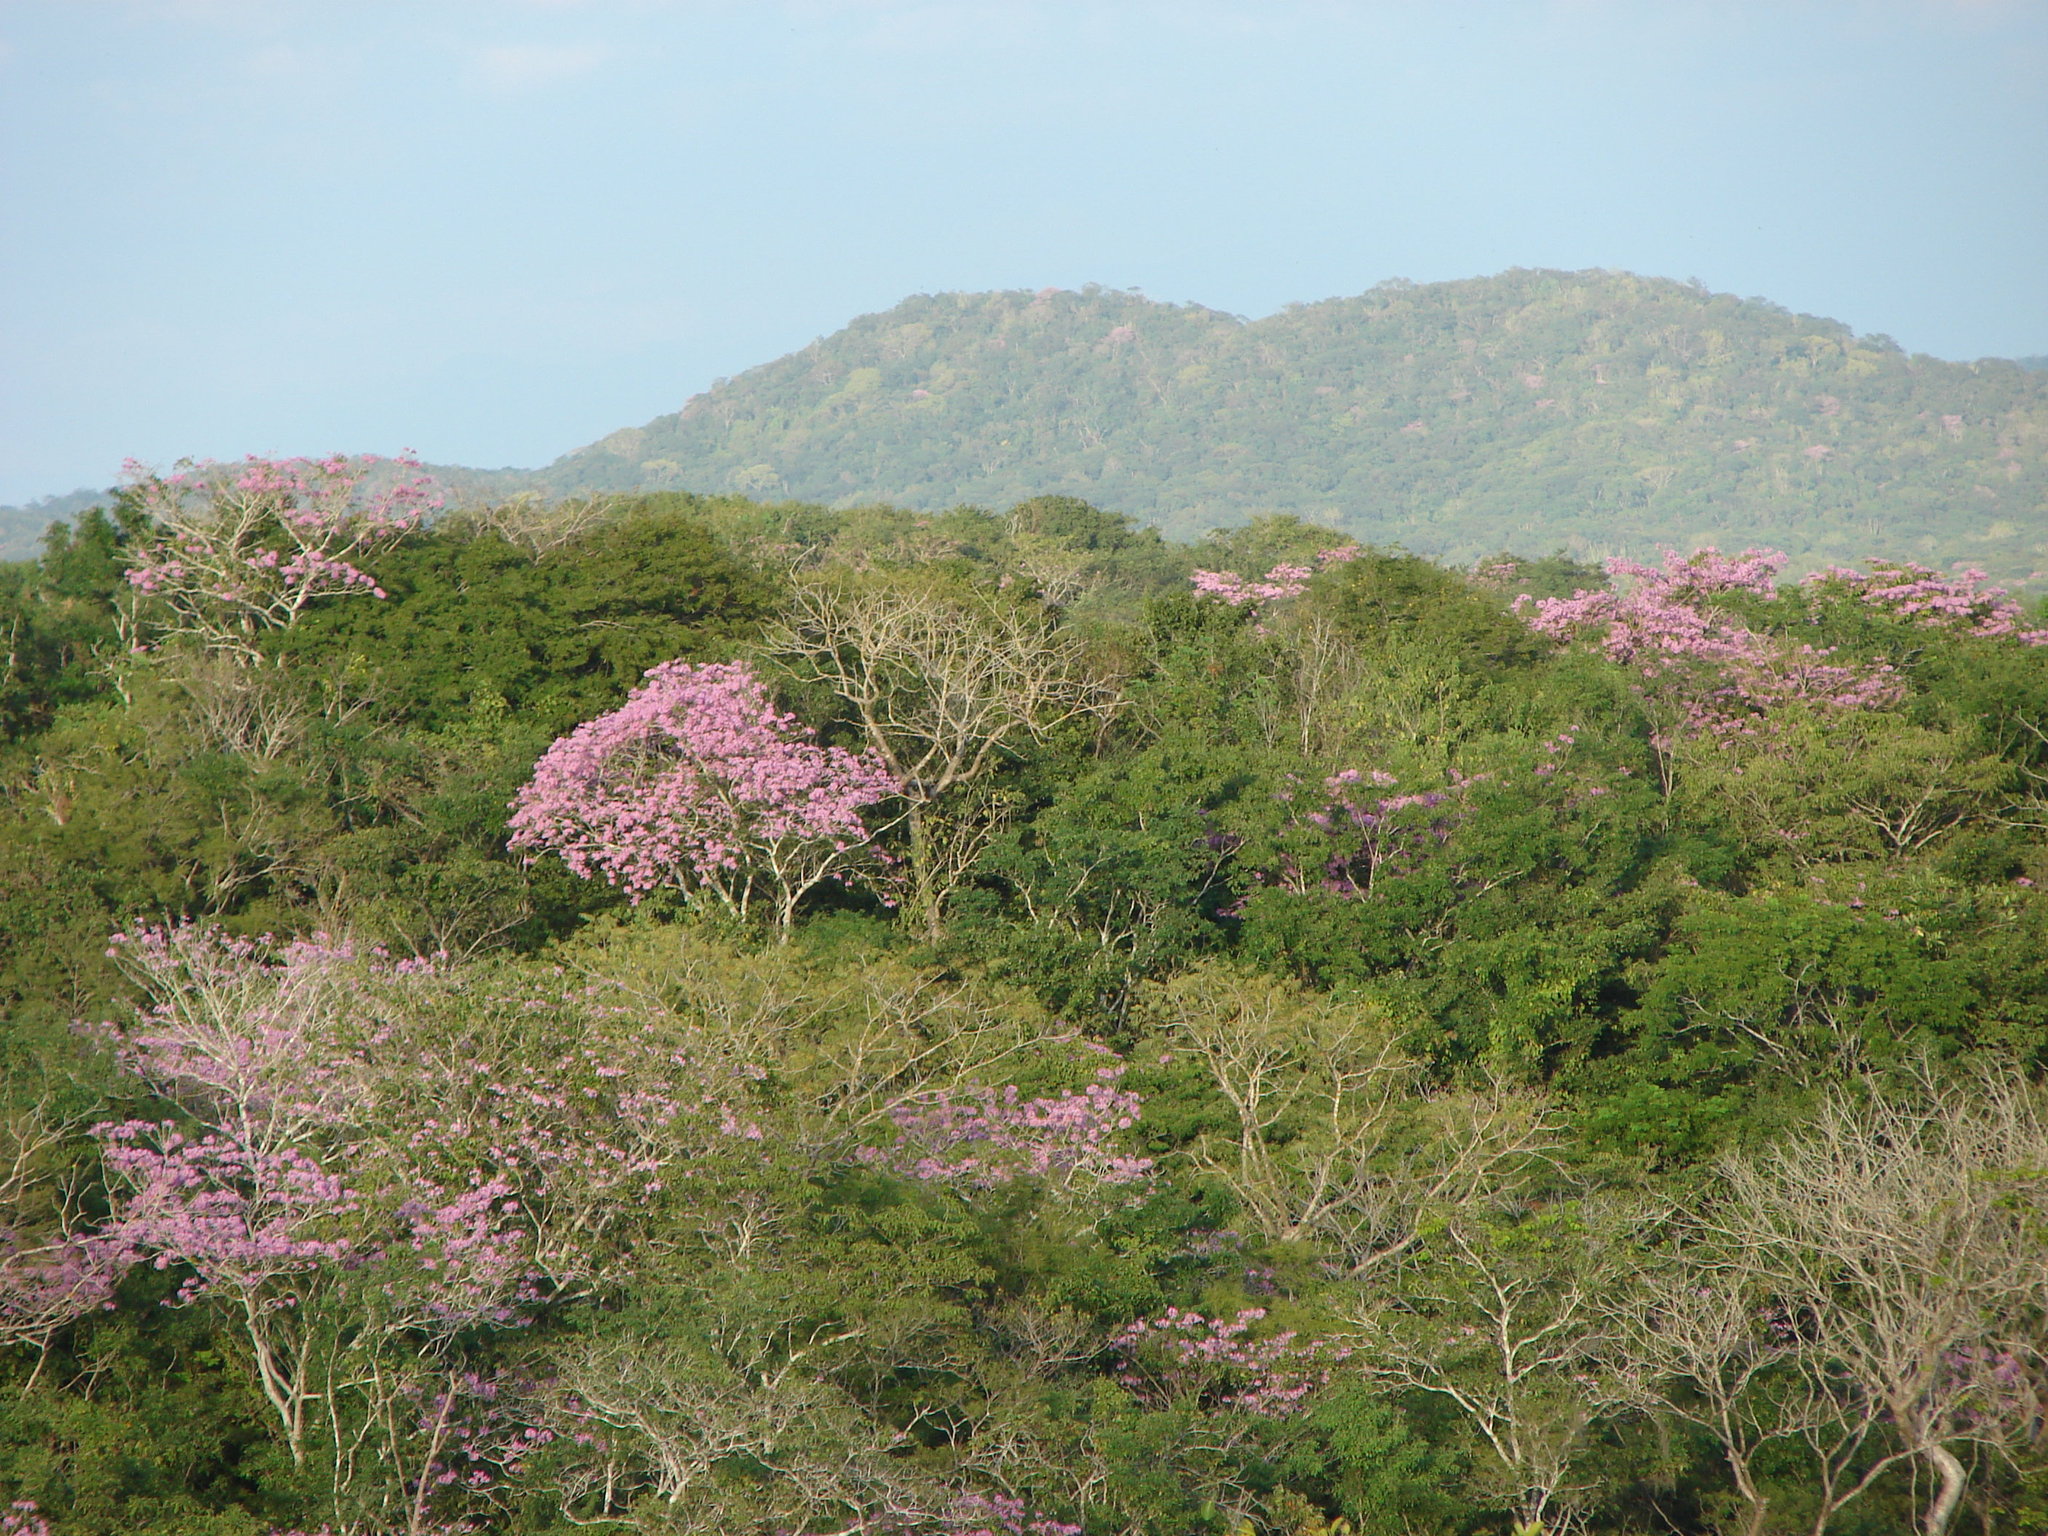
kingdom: Plantae
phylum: Tracheophyta
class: Magnoliopsida
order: Lamiales
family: Bignoniaceae
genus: Handroanthus
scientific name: Handroanthus impetiginosum
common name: Pink trumpet tree
